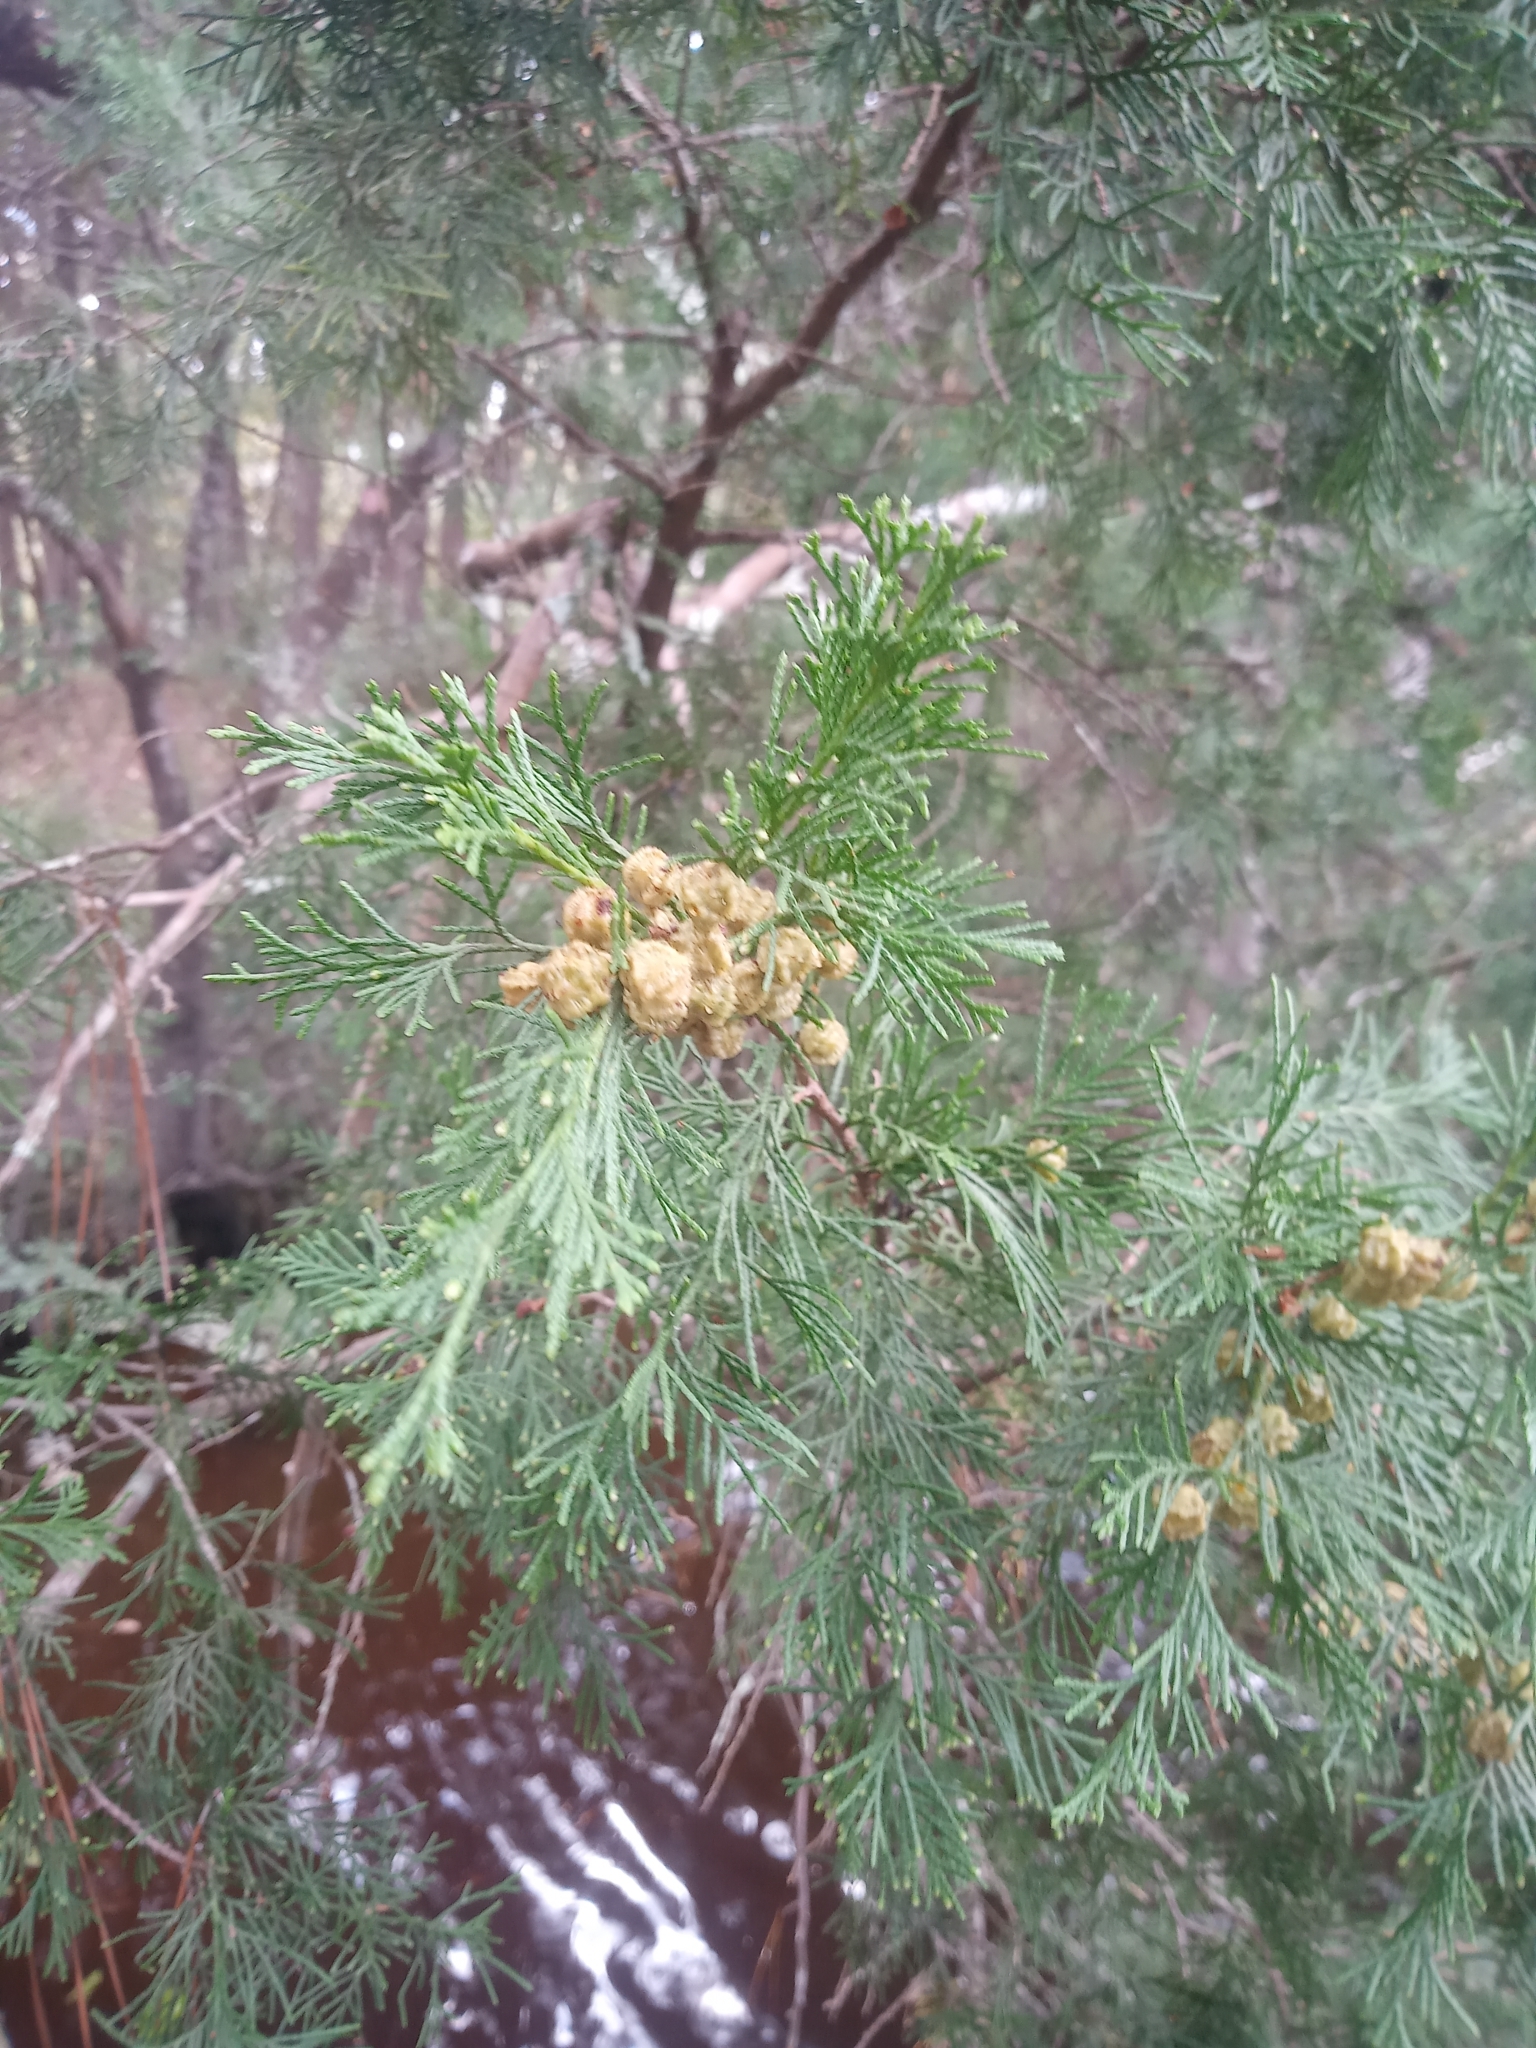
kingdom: Plantae
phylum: Tracheophyta
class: Pinopsida
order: Pinales
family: Cupressaceae
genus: Chamaecyparis
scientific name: Chamaecyparis thyoides
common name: Atlantic white cedar
